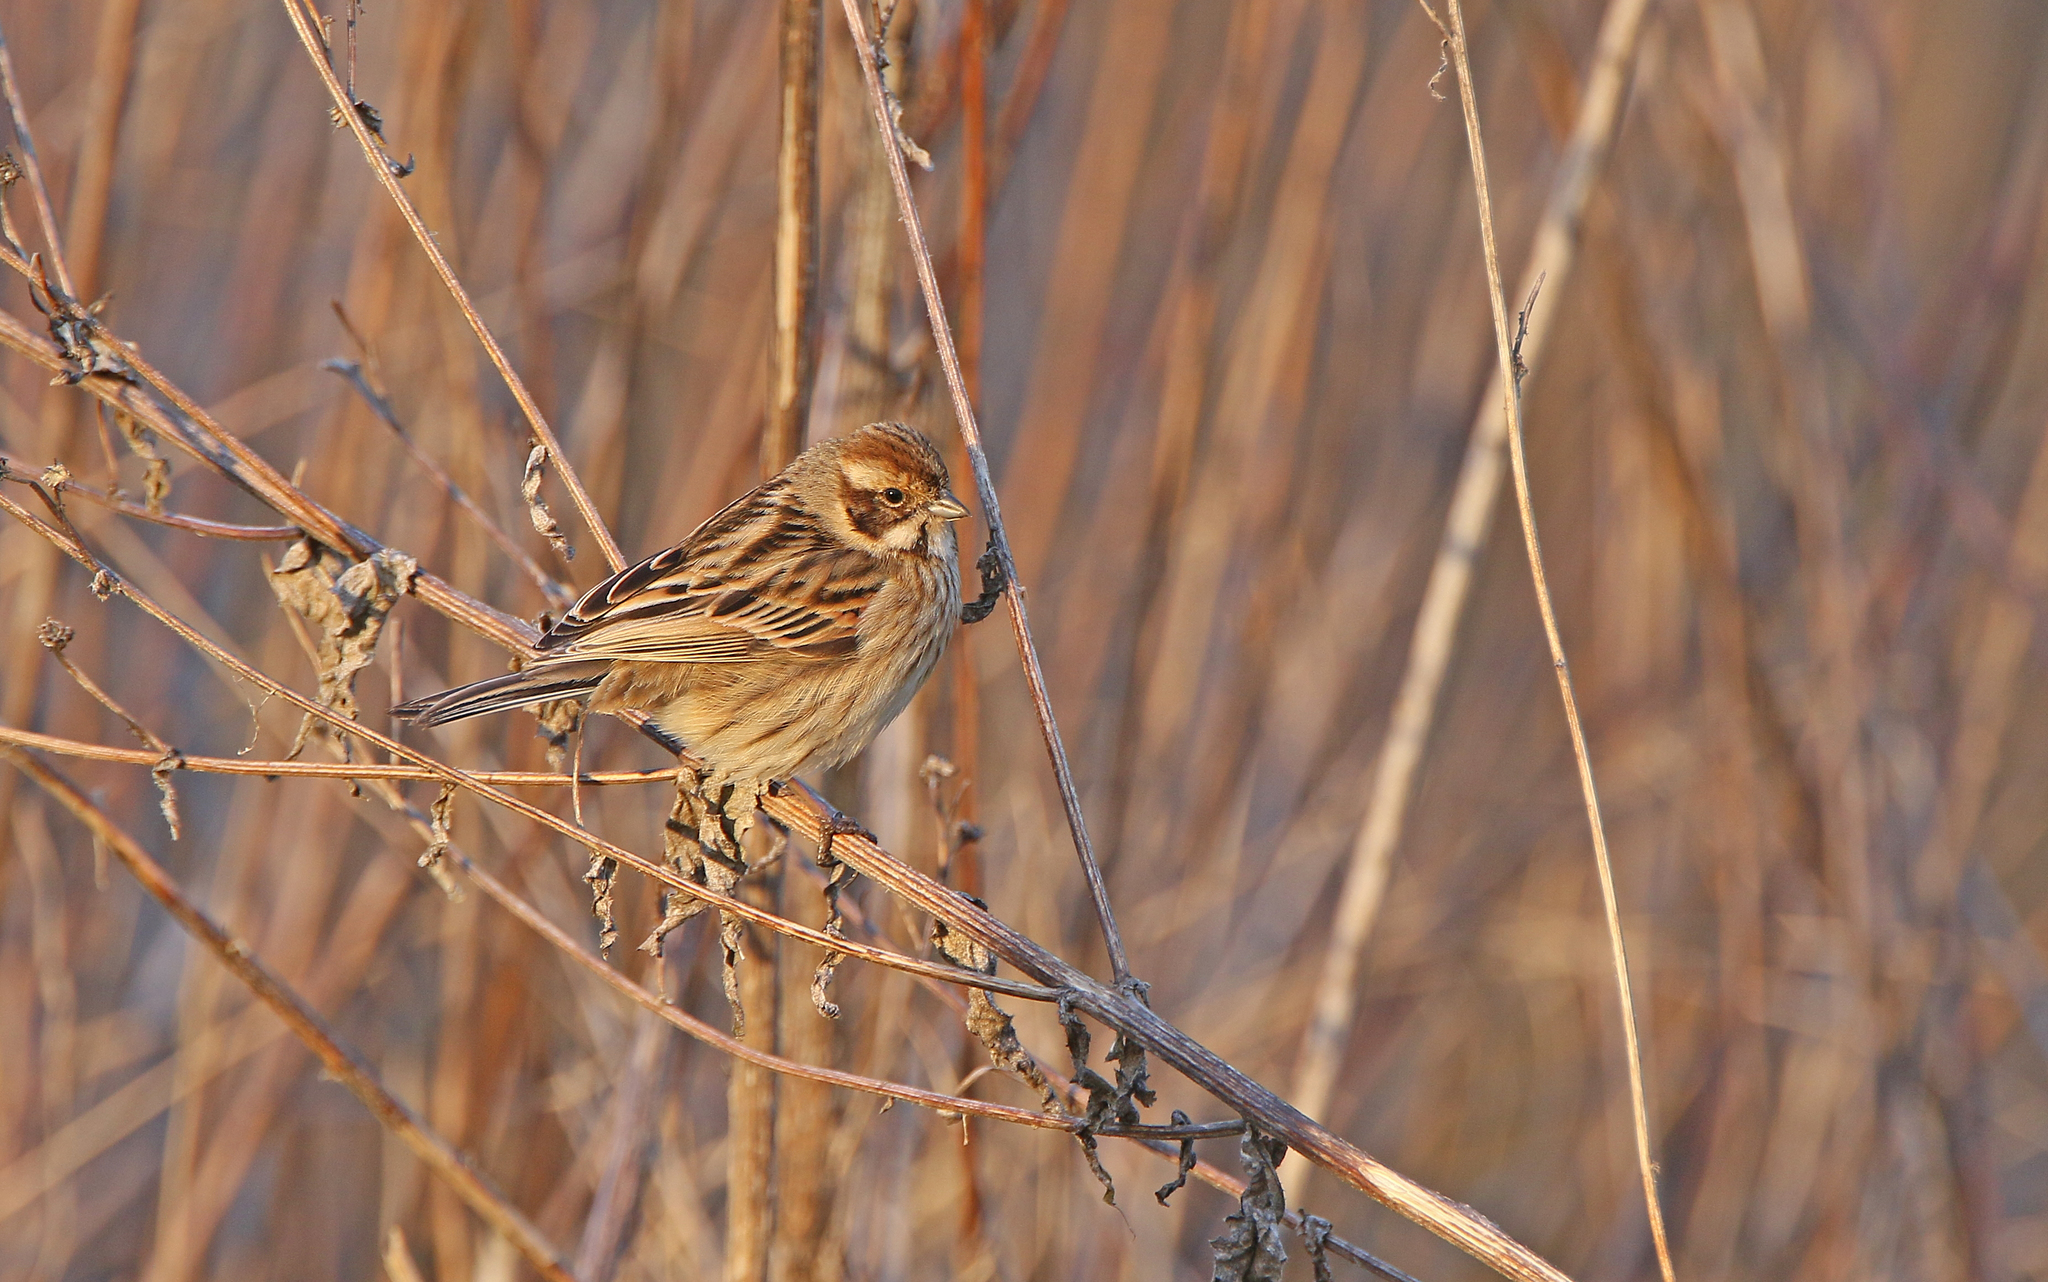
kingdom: Animalia
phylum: Chordata
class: Aves
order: Passeriformes
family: Emberizidae
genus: Emberiza
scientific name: Emberiza schoeniclus
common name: Reed bunting
